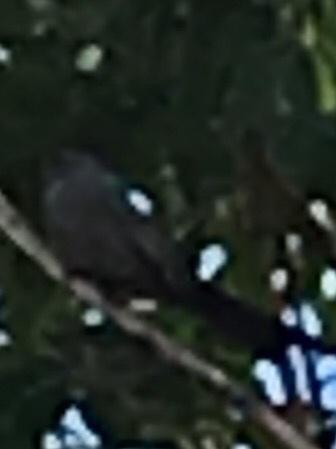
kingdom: Animalia
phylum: Chordata
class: Aves
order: Passeriformes
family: Mimidae
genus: Dumetella
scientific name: Dumetella carolinensis
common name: Gray catbird
